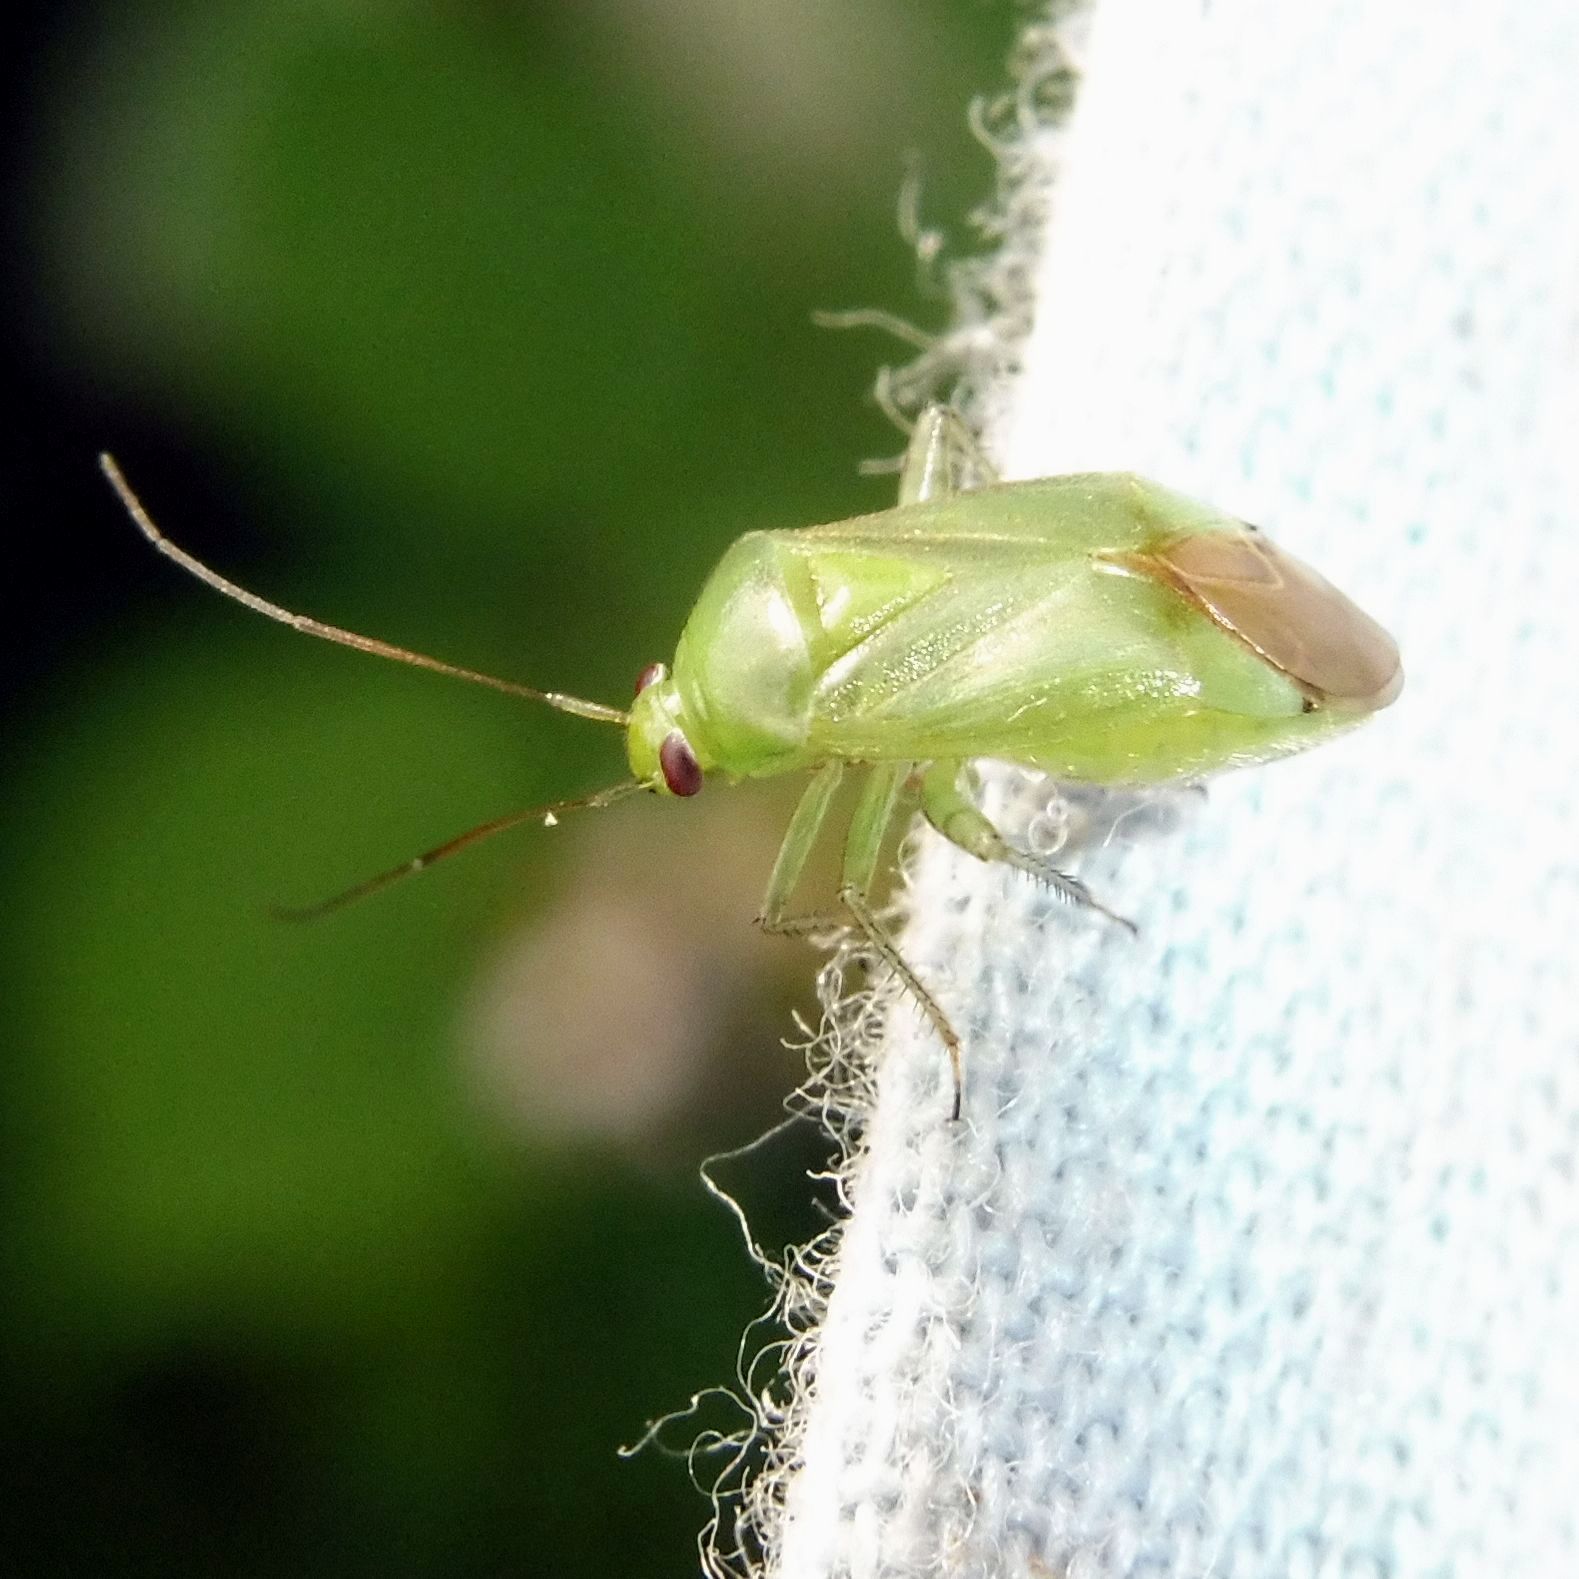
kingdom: Animalia
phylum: Arthropoda
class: Insecta
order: Hemiptera
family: Miridae
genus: Apolygus
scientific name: Apolygus spinolae
